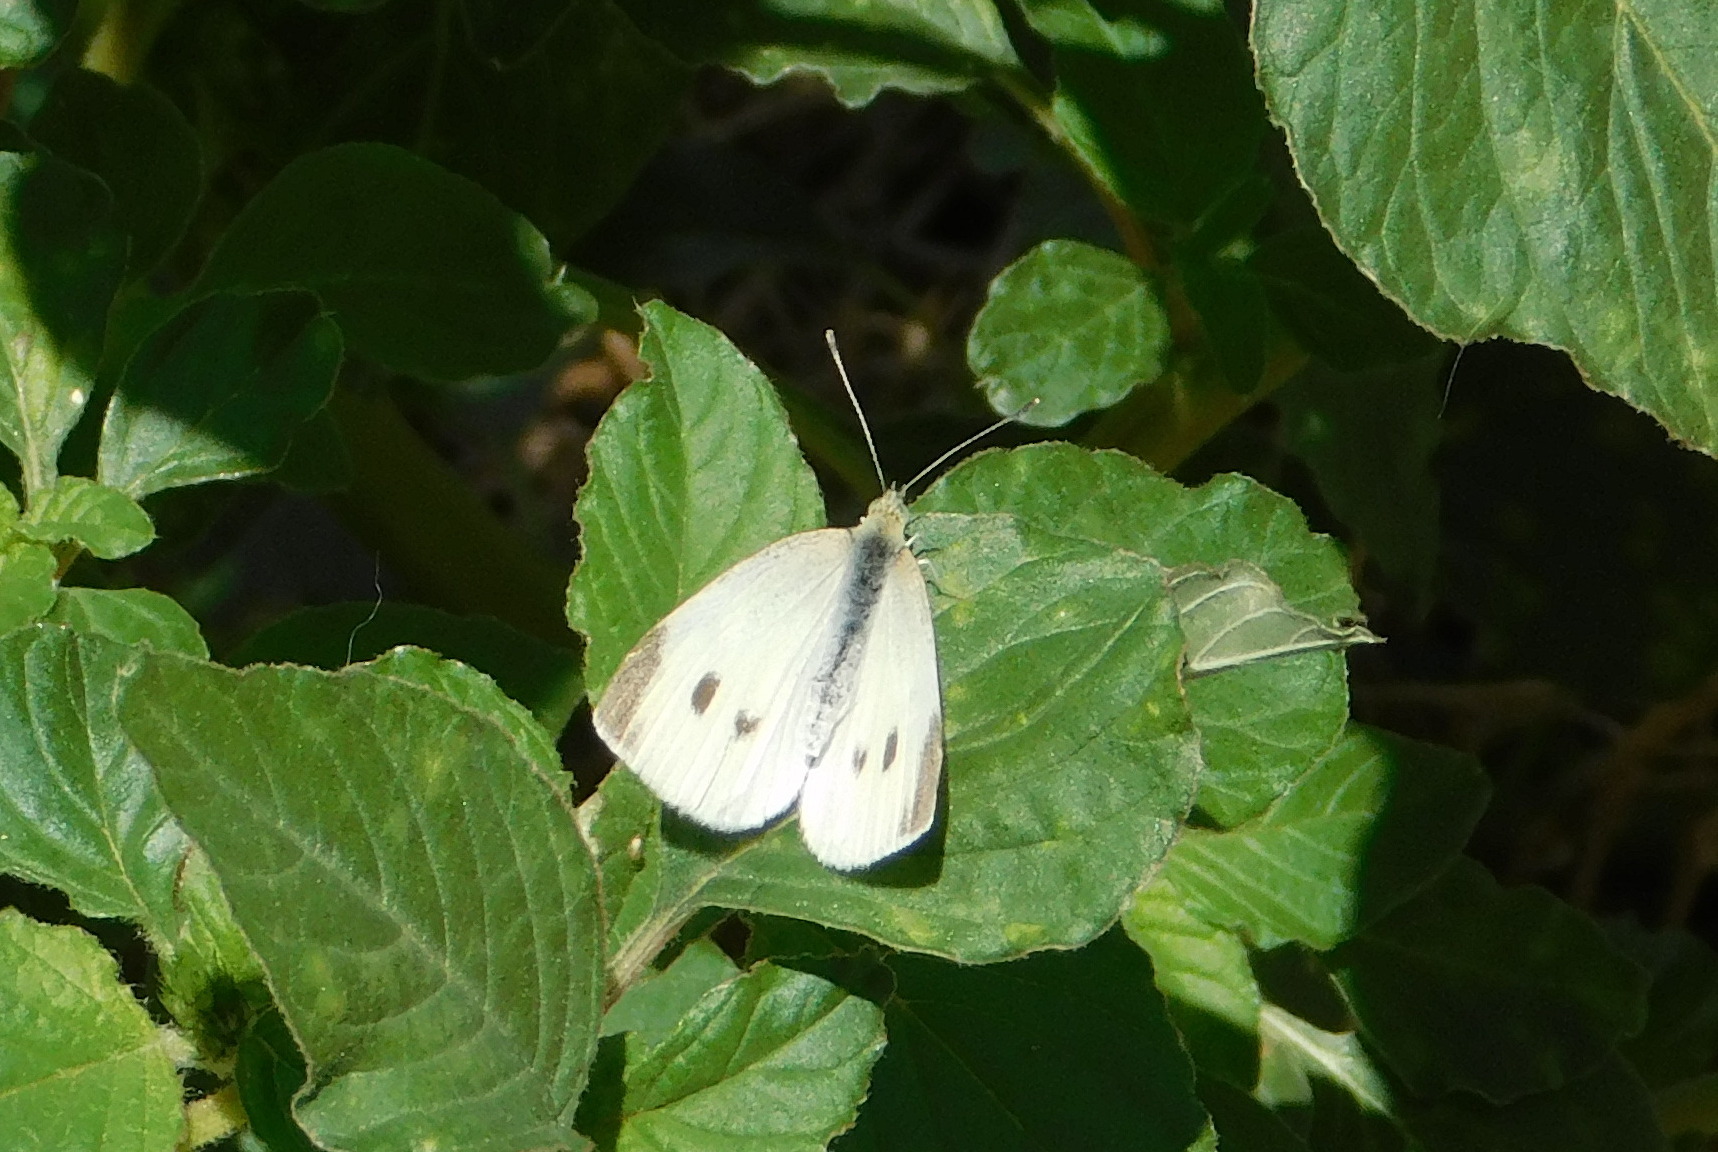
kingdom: Animalia
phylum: Arthropoda
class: Insecta
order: Lepidoptera
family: Pieridae
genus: Pieris
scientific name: Pieris rapae
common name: Small white
